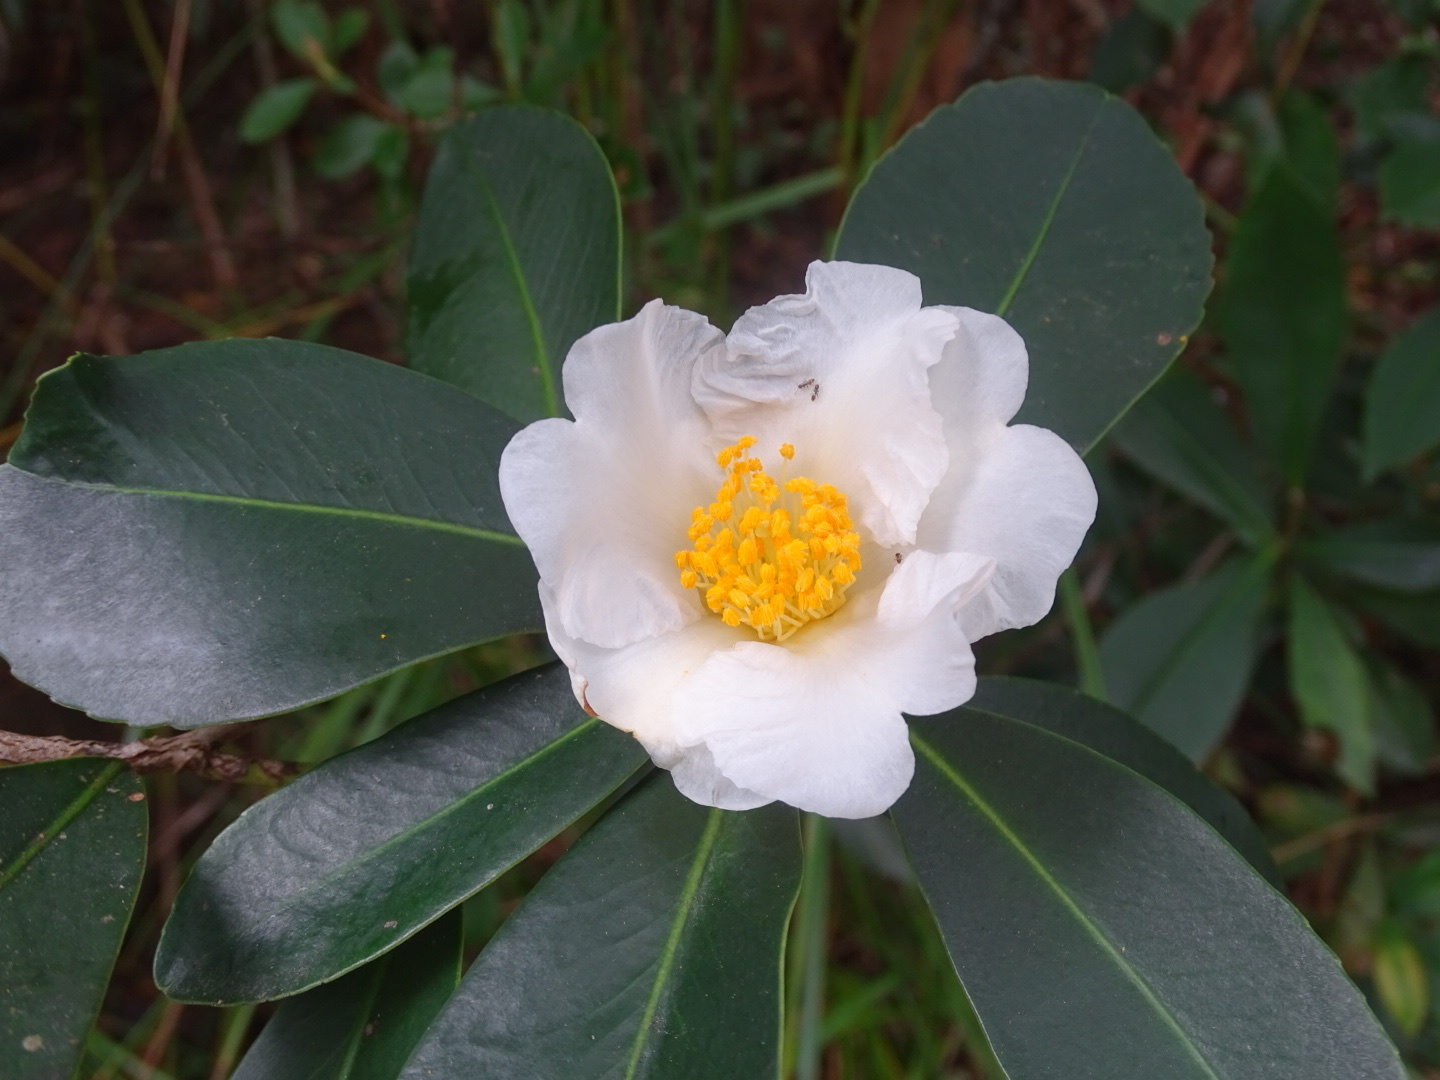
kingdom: Plantae
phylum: Tracheophyta
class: Magnoliopsida
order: Ericales
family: Theaceae
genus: Polyspora
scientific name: Polyspora axillaris
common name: Fried egg tree
